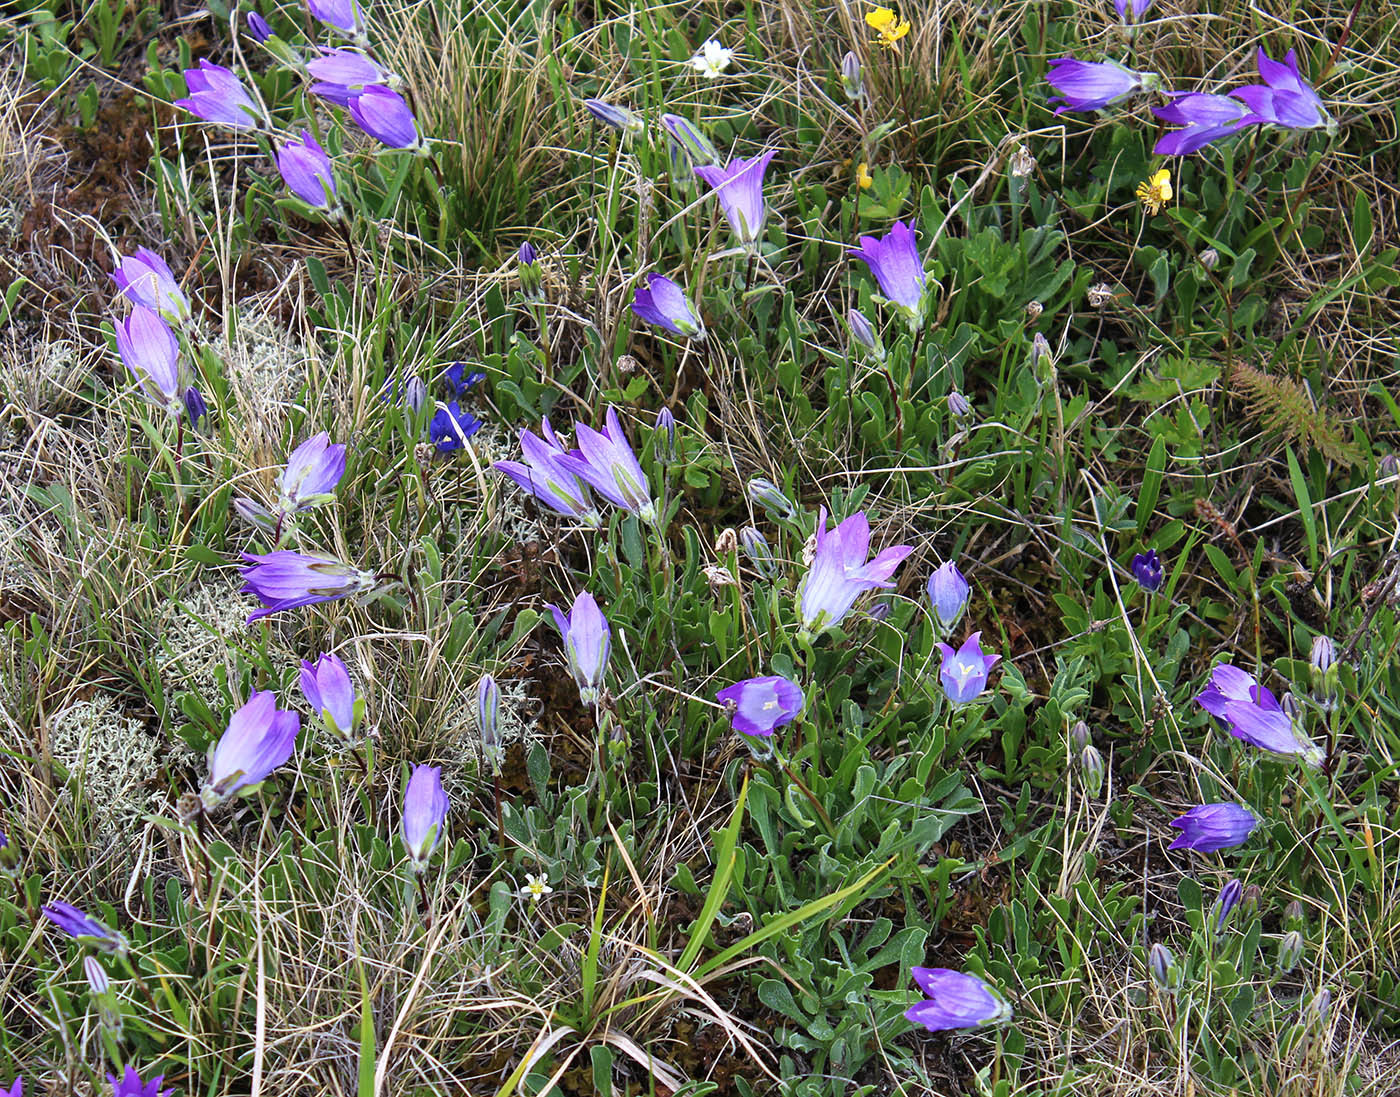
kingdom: Plantae
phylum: Tracheophyta
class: Magnoliopsida
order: Asterales
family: Campanulaceae
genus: Campanula
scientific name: Campanula tridentata
